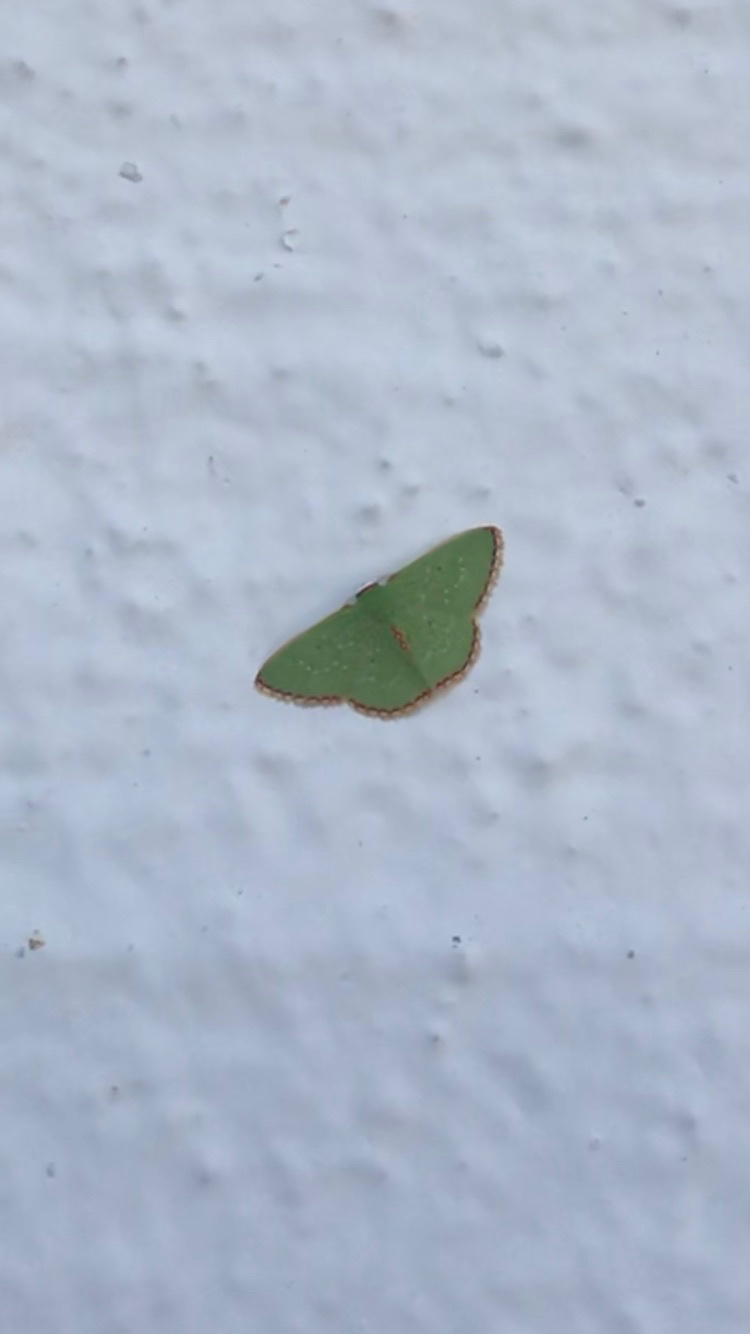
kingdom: Animalia
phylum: Arthropoda
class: Insecta
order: Lepidoptera
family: Geometridae
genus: Synchlora
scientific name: Synchlora herbaria
